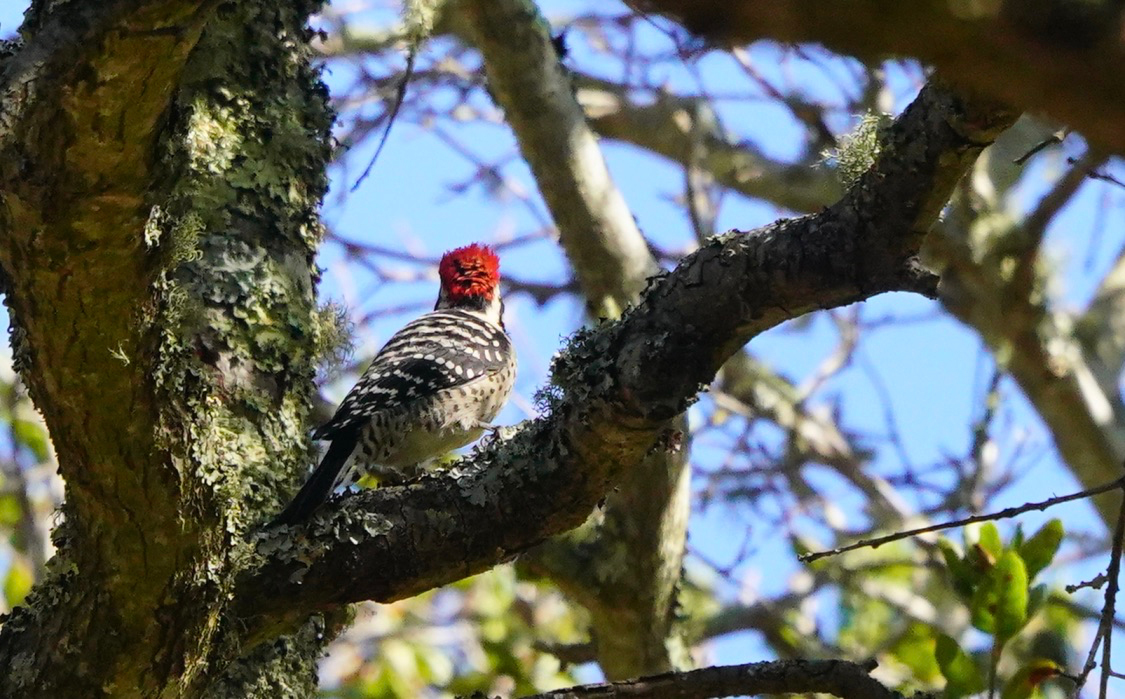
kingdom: Animalia
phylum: Chordata
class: Aves
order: Piciformes
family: Picidae
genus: Dryobates
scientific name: Dryobates nuttallii
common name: Nuttall's woodpecker
